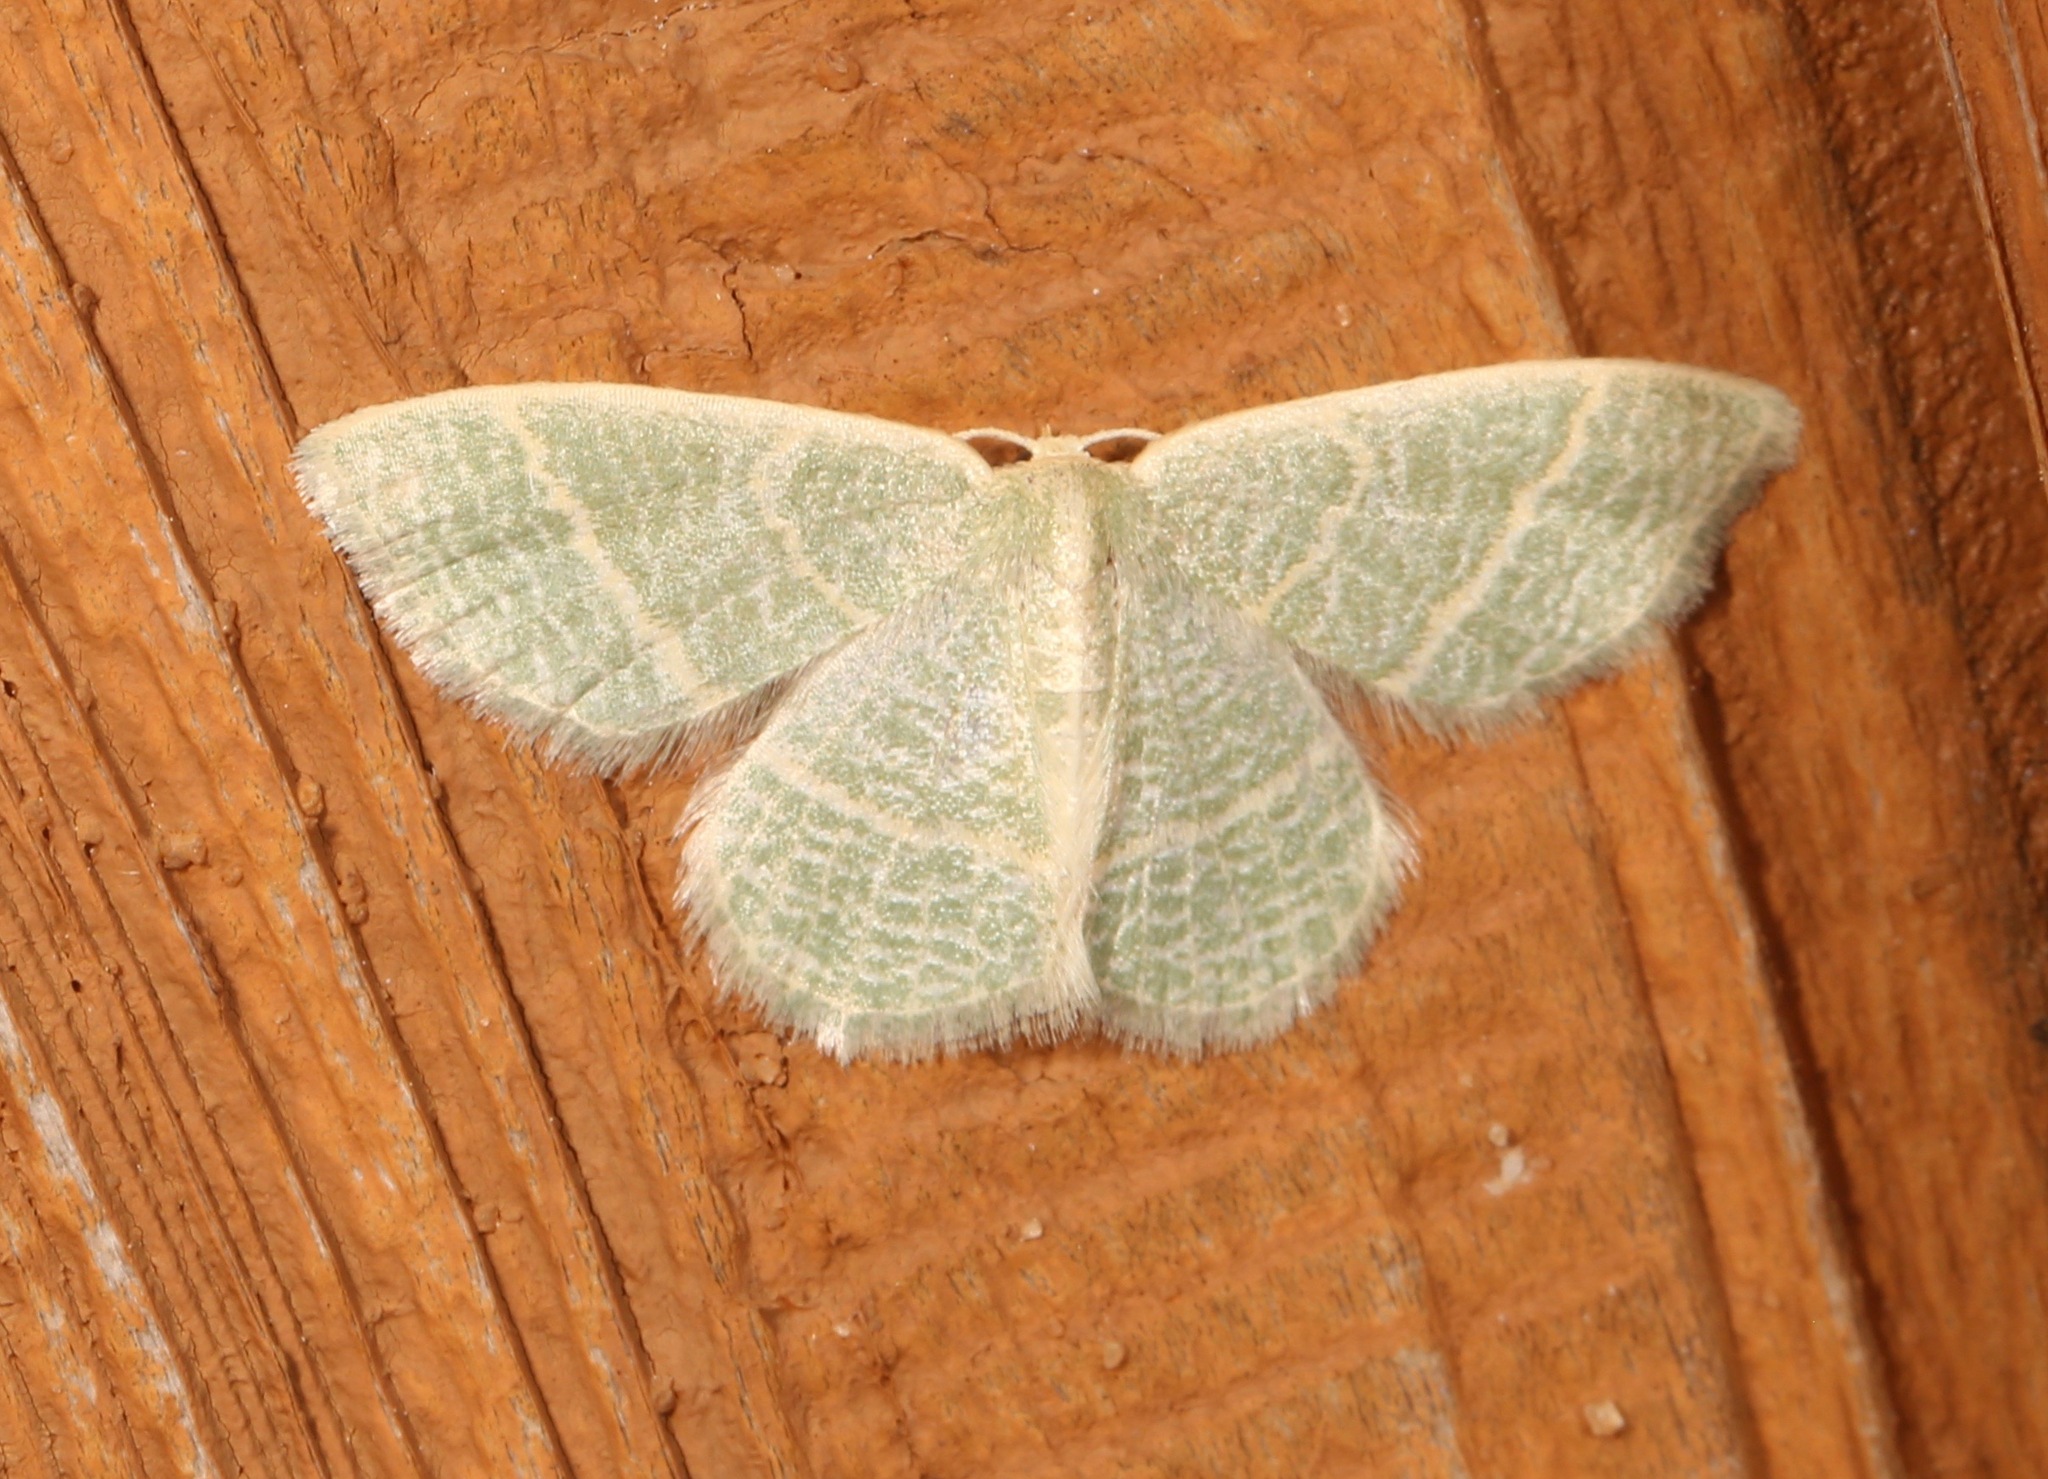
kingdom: Animalia
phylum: Arthropoda
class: Insecta
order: Lepidoptera
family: Geometridae
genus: Chlorochlamys
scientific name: Chlorochlamys chloroleucaria
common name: Blackberry looper
